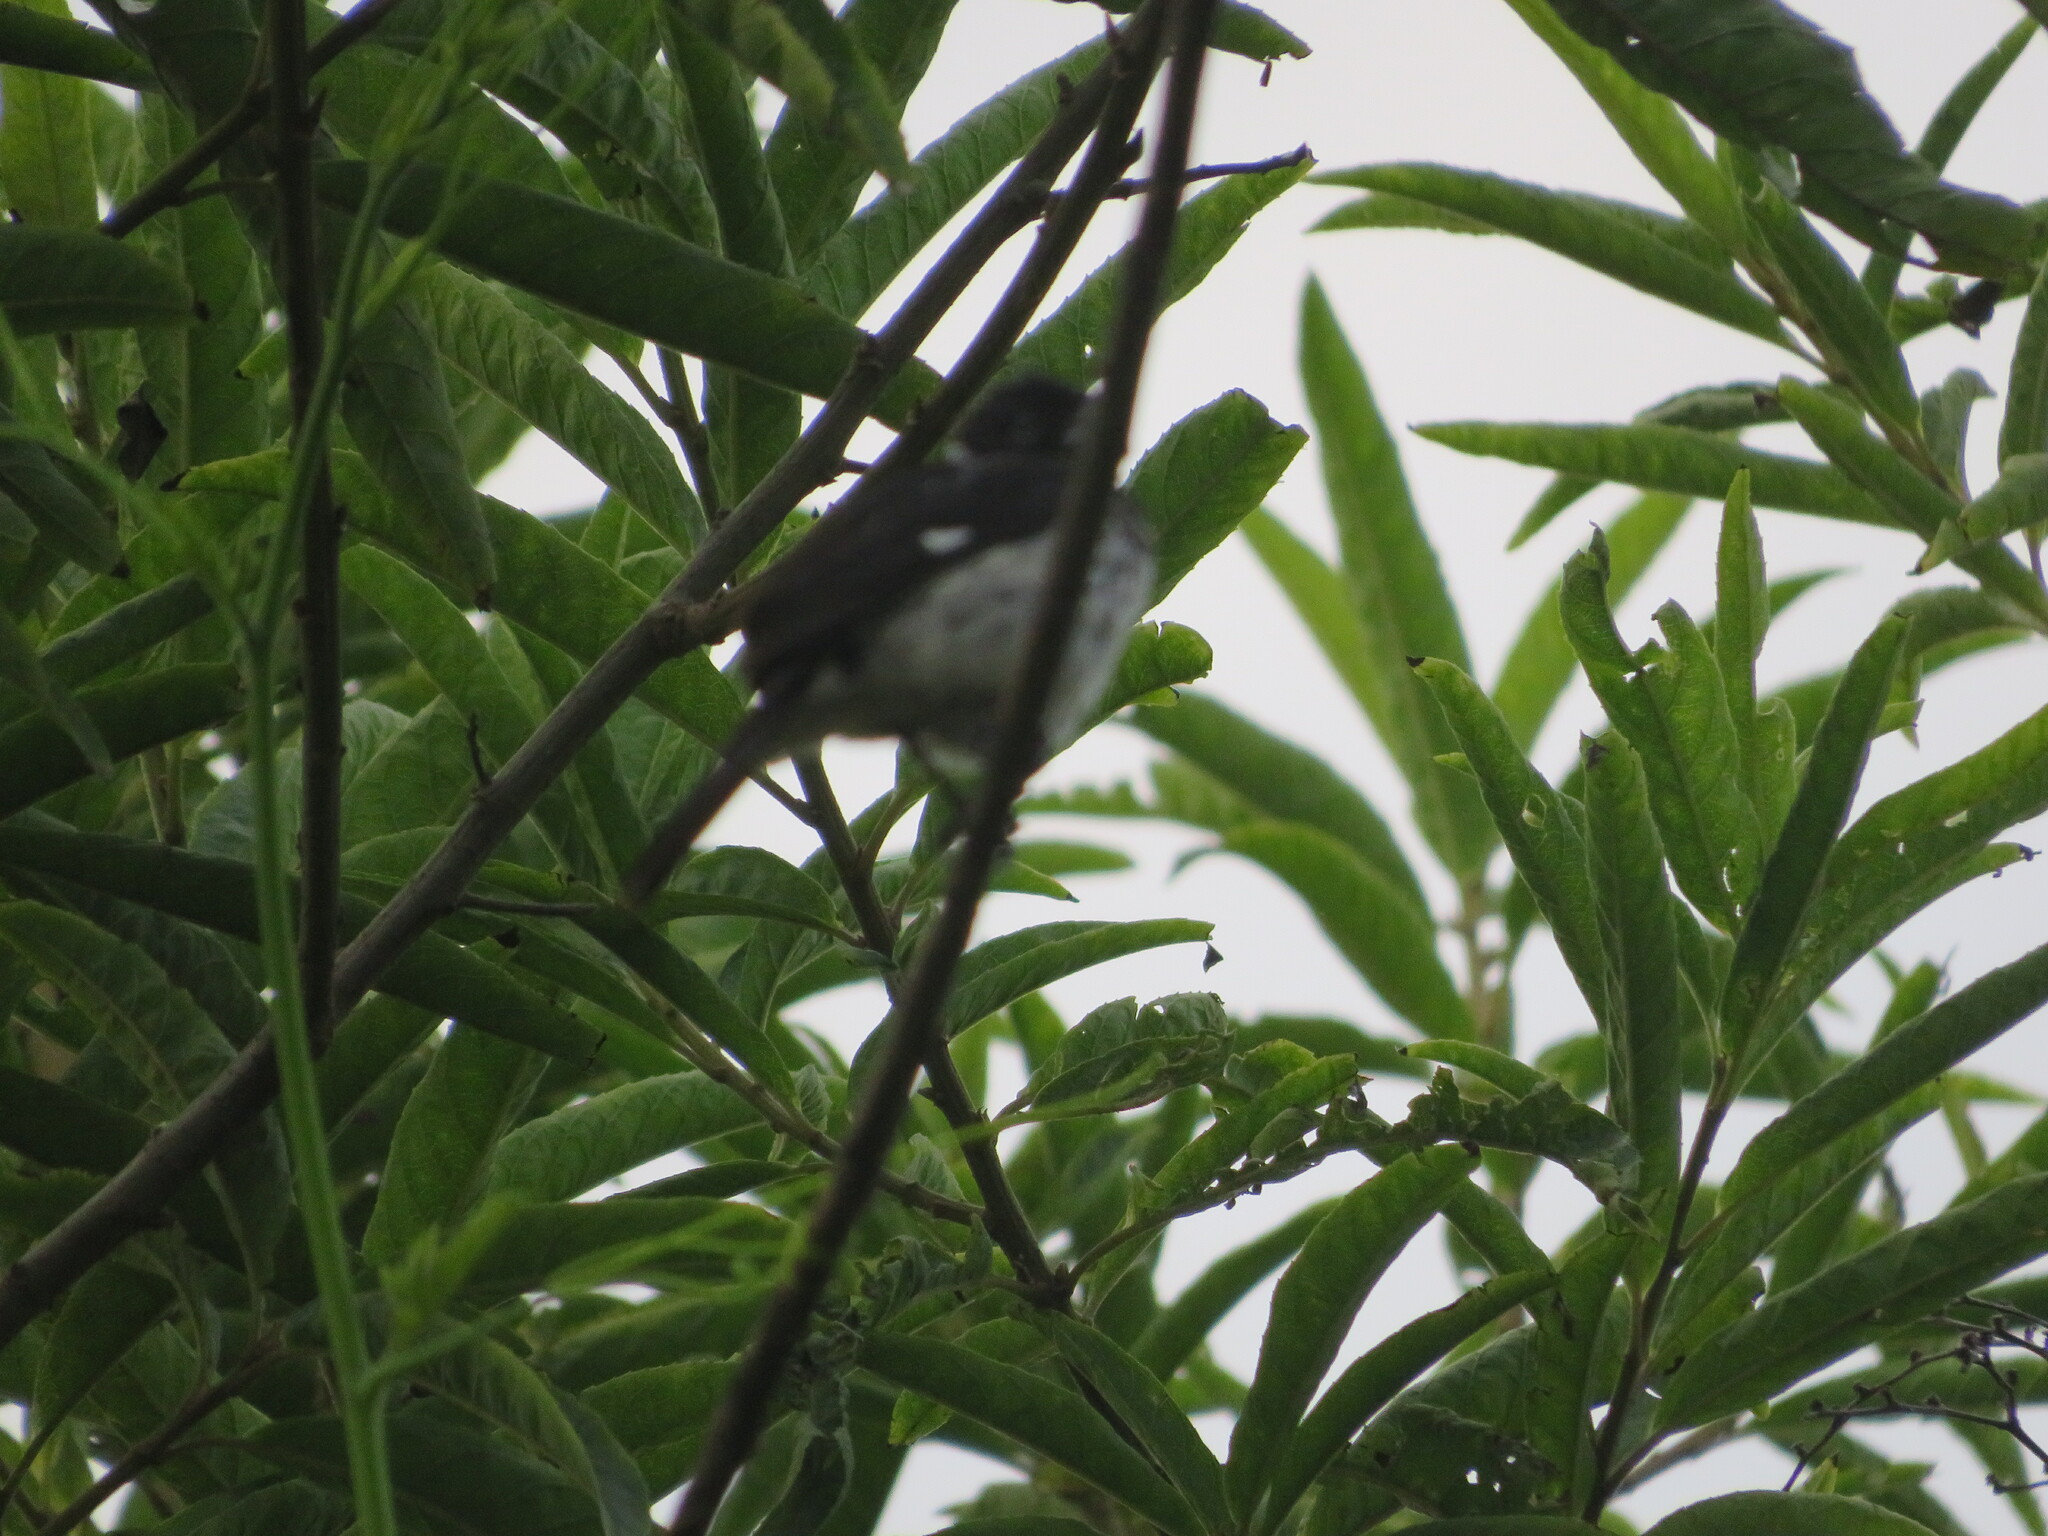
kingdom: Animalia
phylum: Chordata
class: Aves
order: Passeriformes
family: Thraupidae
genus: Sporophila
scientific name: Sporophila morelleti
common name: Morelet's seedeater
